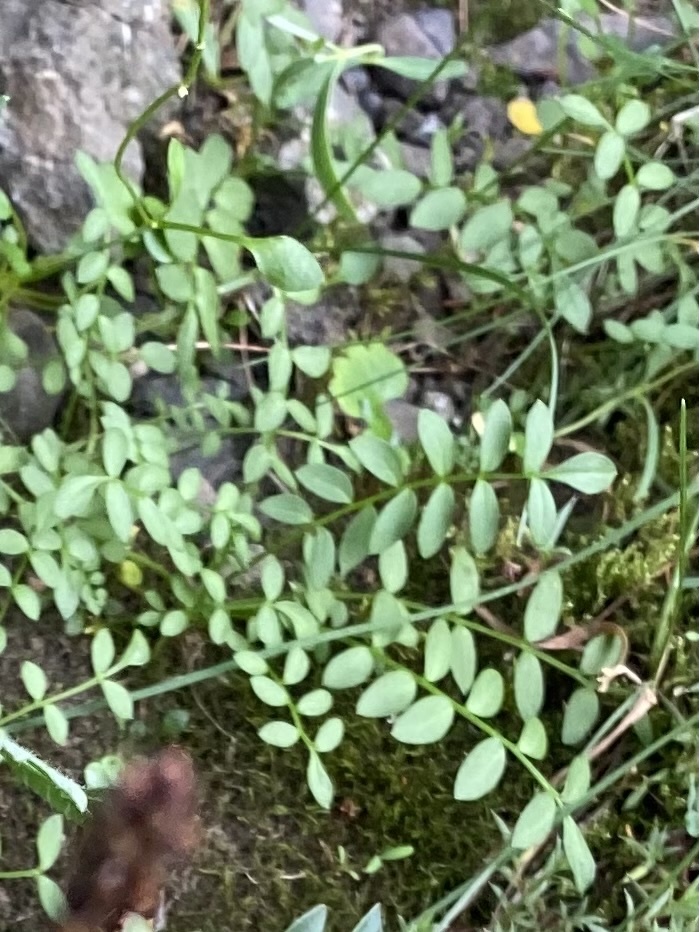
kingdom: Plantae
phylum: Tracheophyta
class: Magnoliopsida
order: Ericales
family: Polemoniaceae
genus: Polemonium
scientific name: Polemonium boreale
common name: Boreal jacob's-ladder
